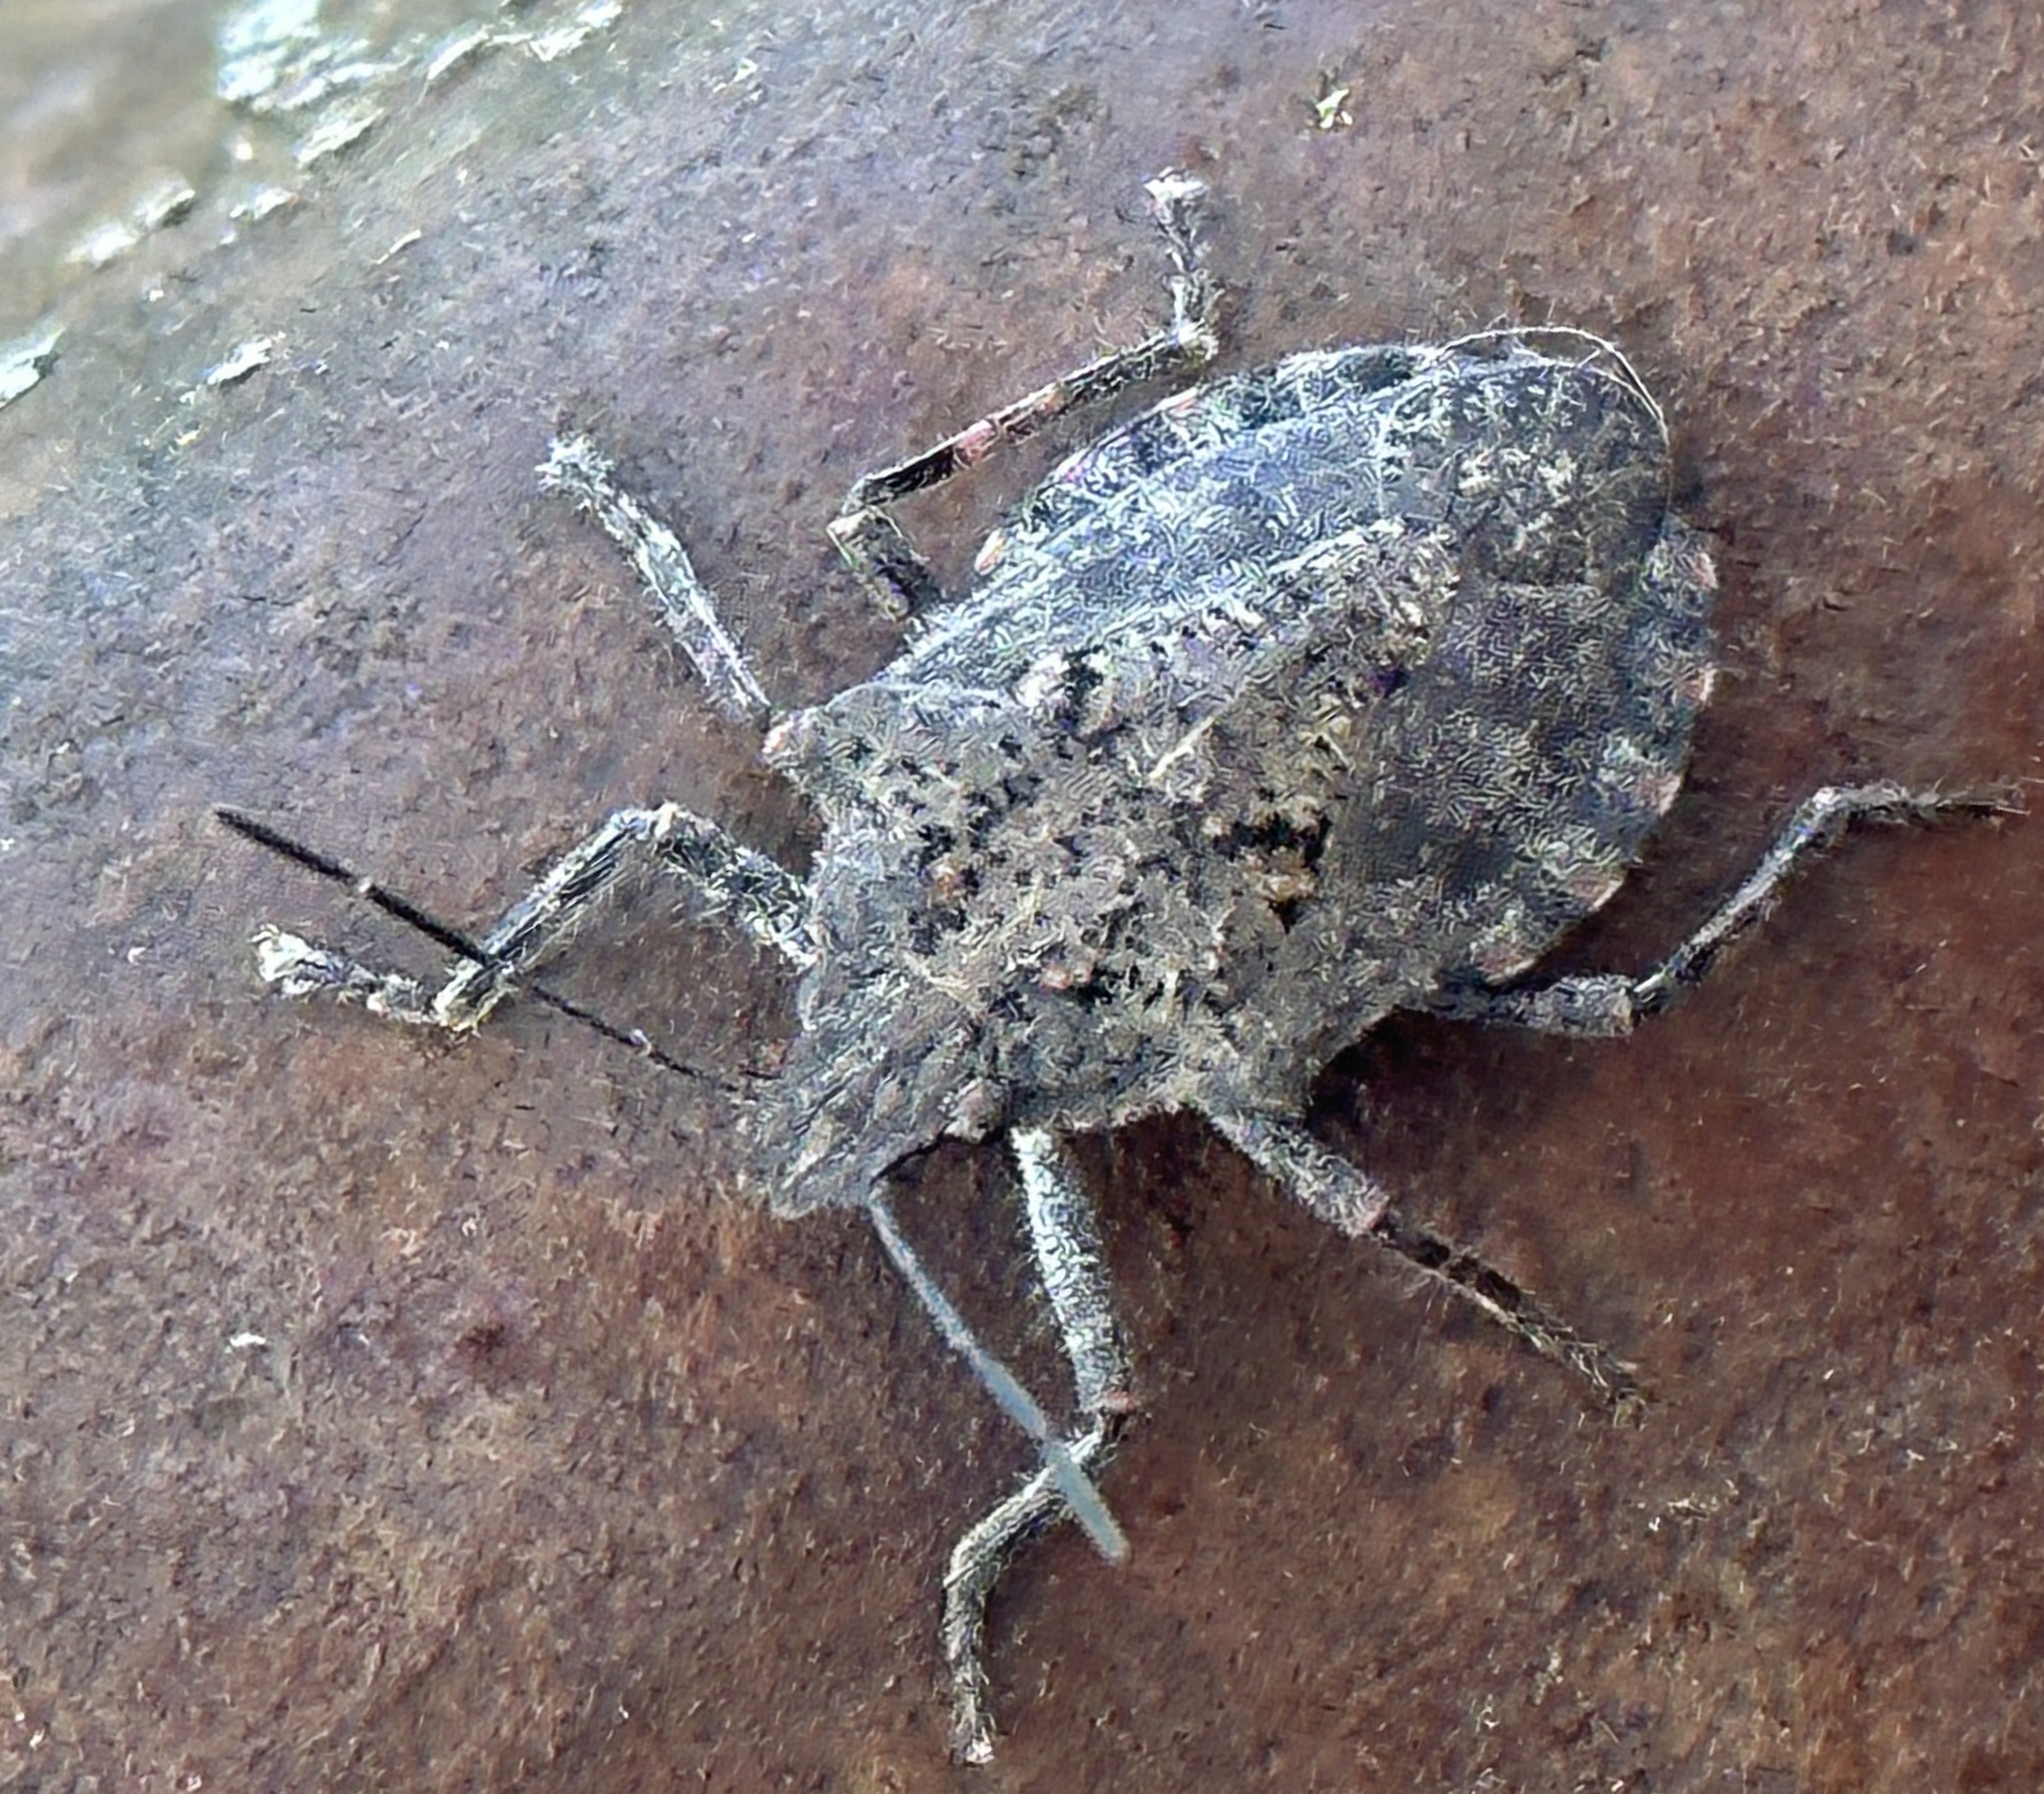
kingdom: Animalia
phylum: Arthropoda
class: Insecta
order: Hemiptera
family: Pentatomidae
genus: Brochymena
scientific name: Brochymena quadripustulata
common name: Four-humped stink bug
